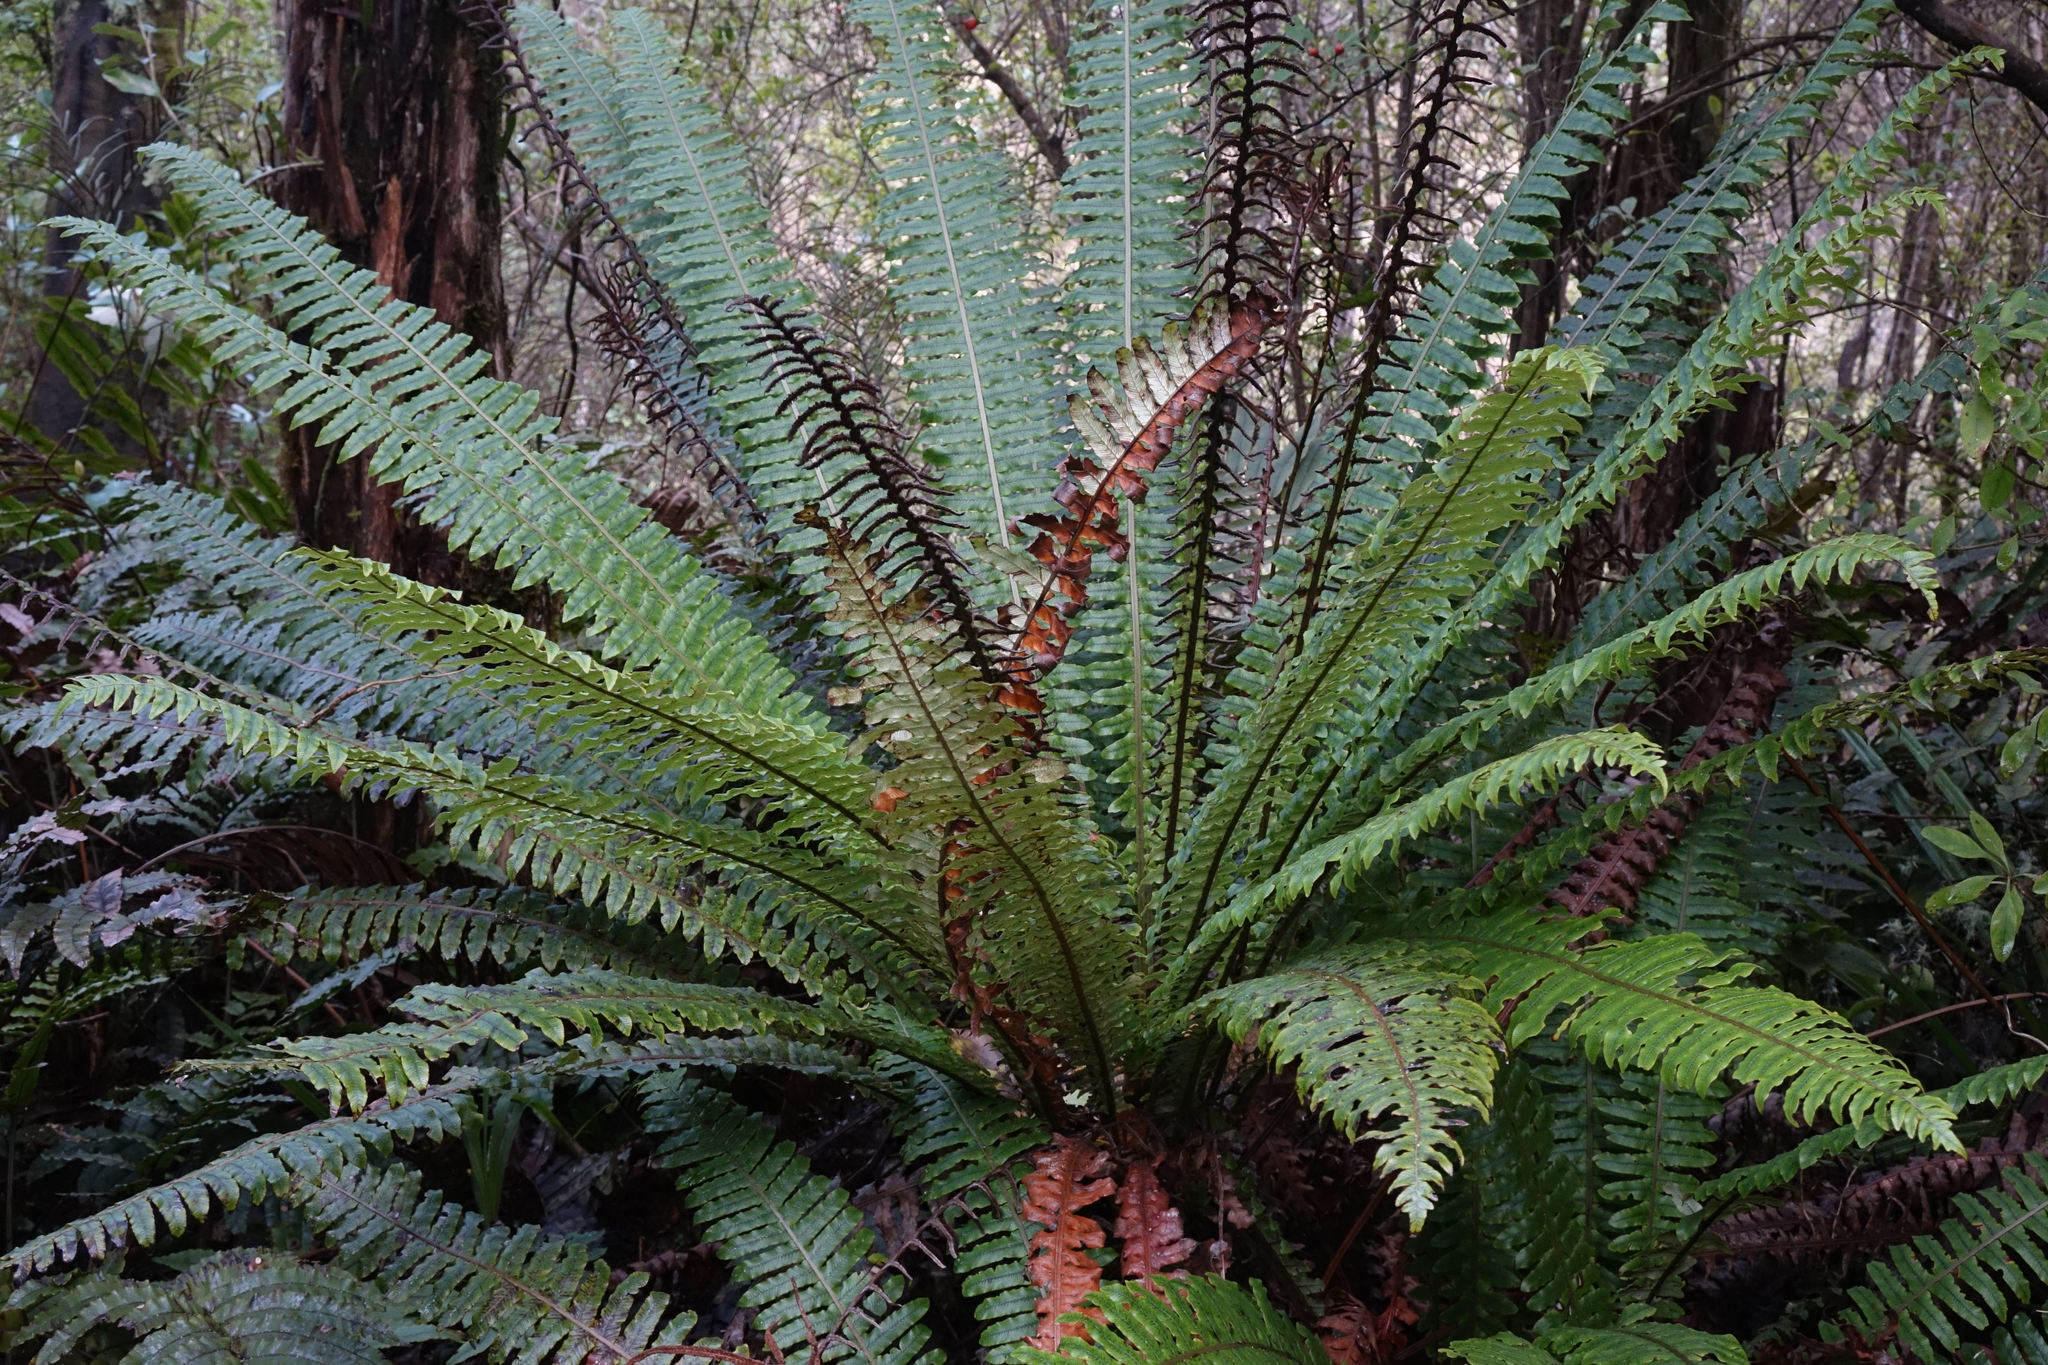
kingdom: Plantae
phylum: Tracheophyta
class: Polypodiopsida
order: Polypodiales
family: Blechnaceae
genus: Lomaria
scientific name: Lomaria discolor
